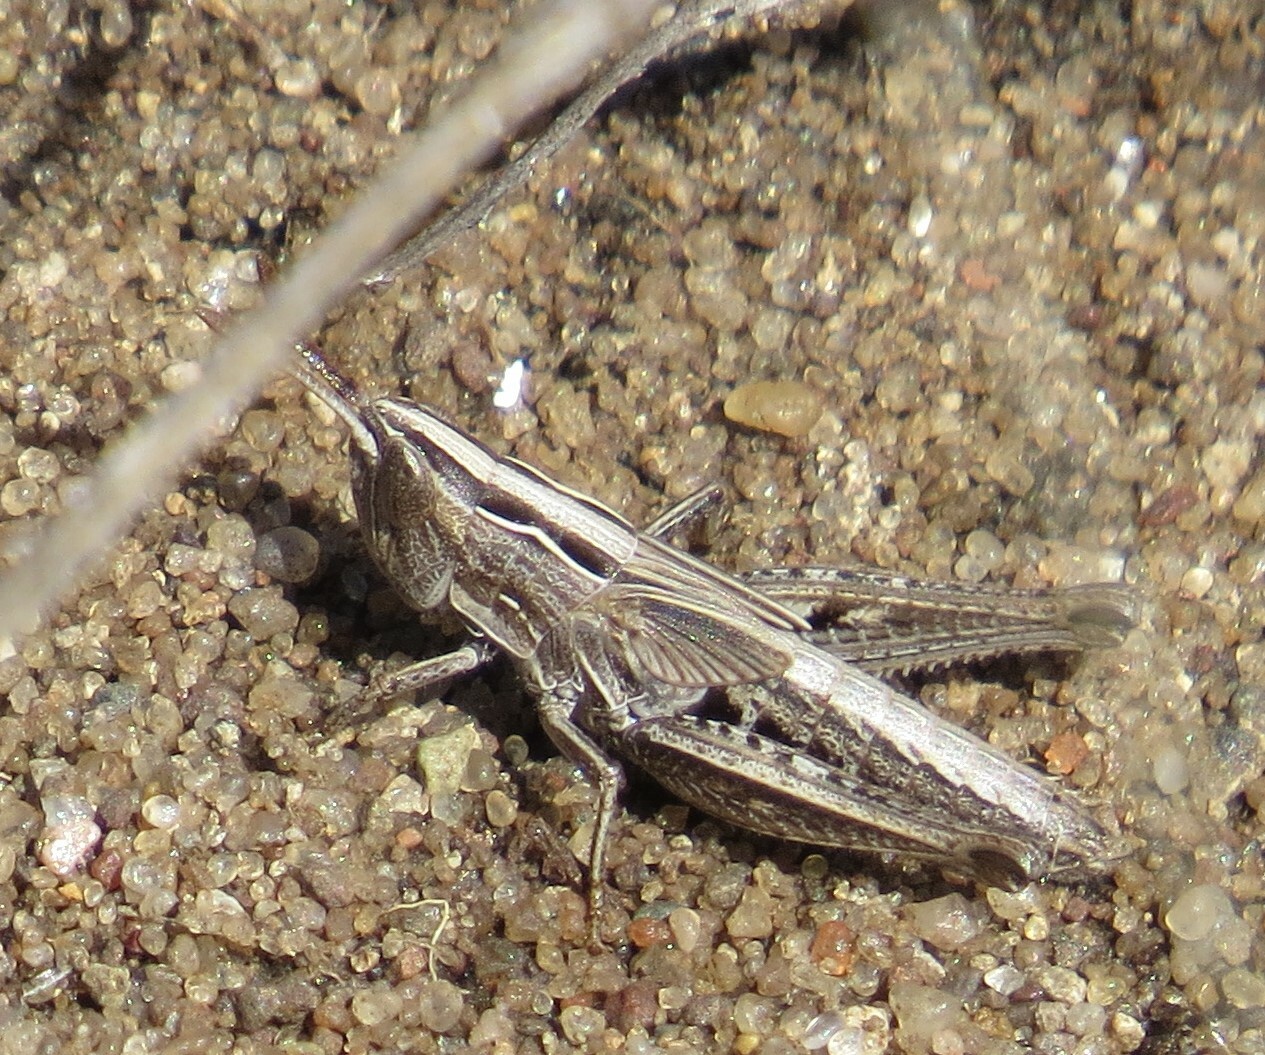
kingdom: Animalia
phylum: Arthropoda
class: Insecta
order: Orthoptera
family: Acrididae
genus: Eritettix
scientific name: Eritettix simplex
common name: Velvet-striped grasshopper
